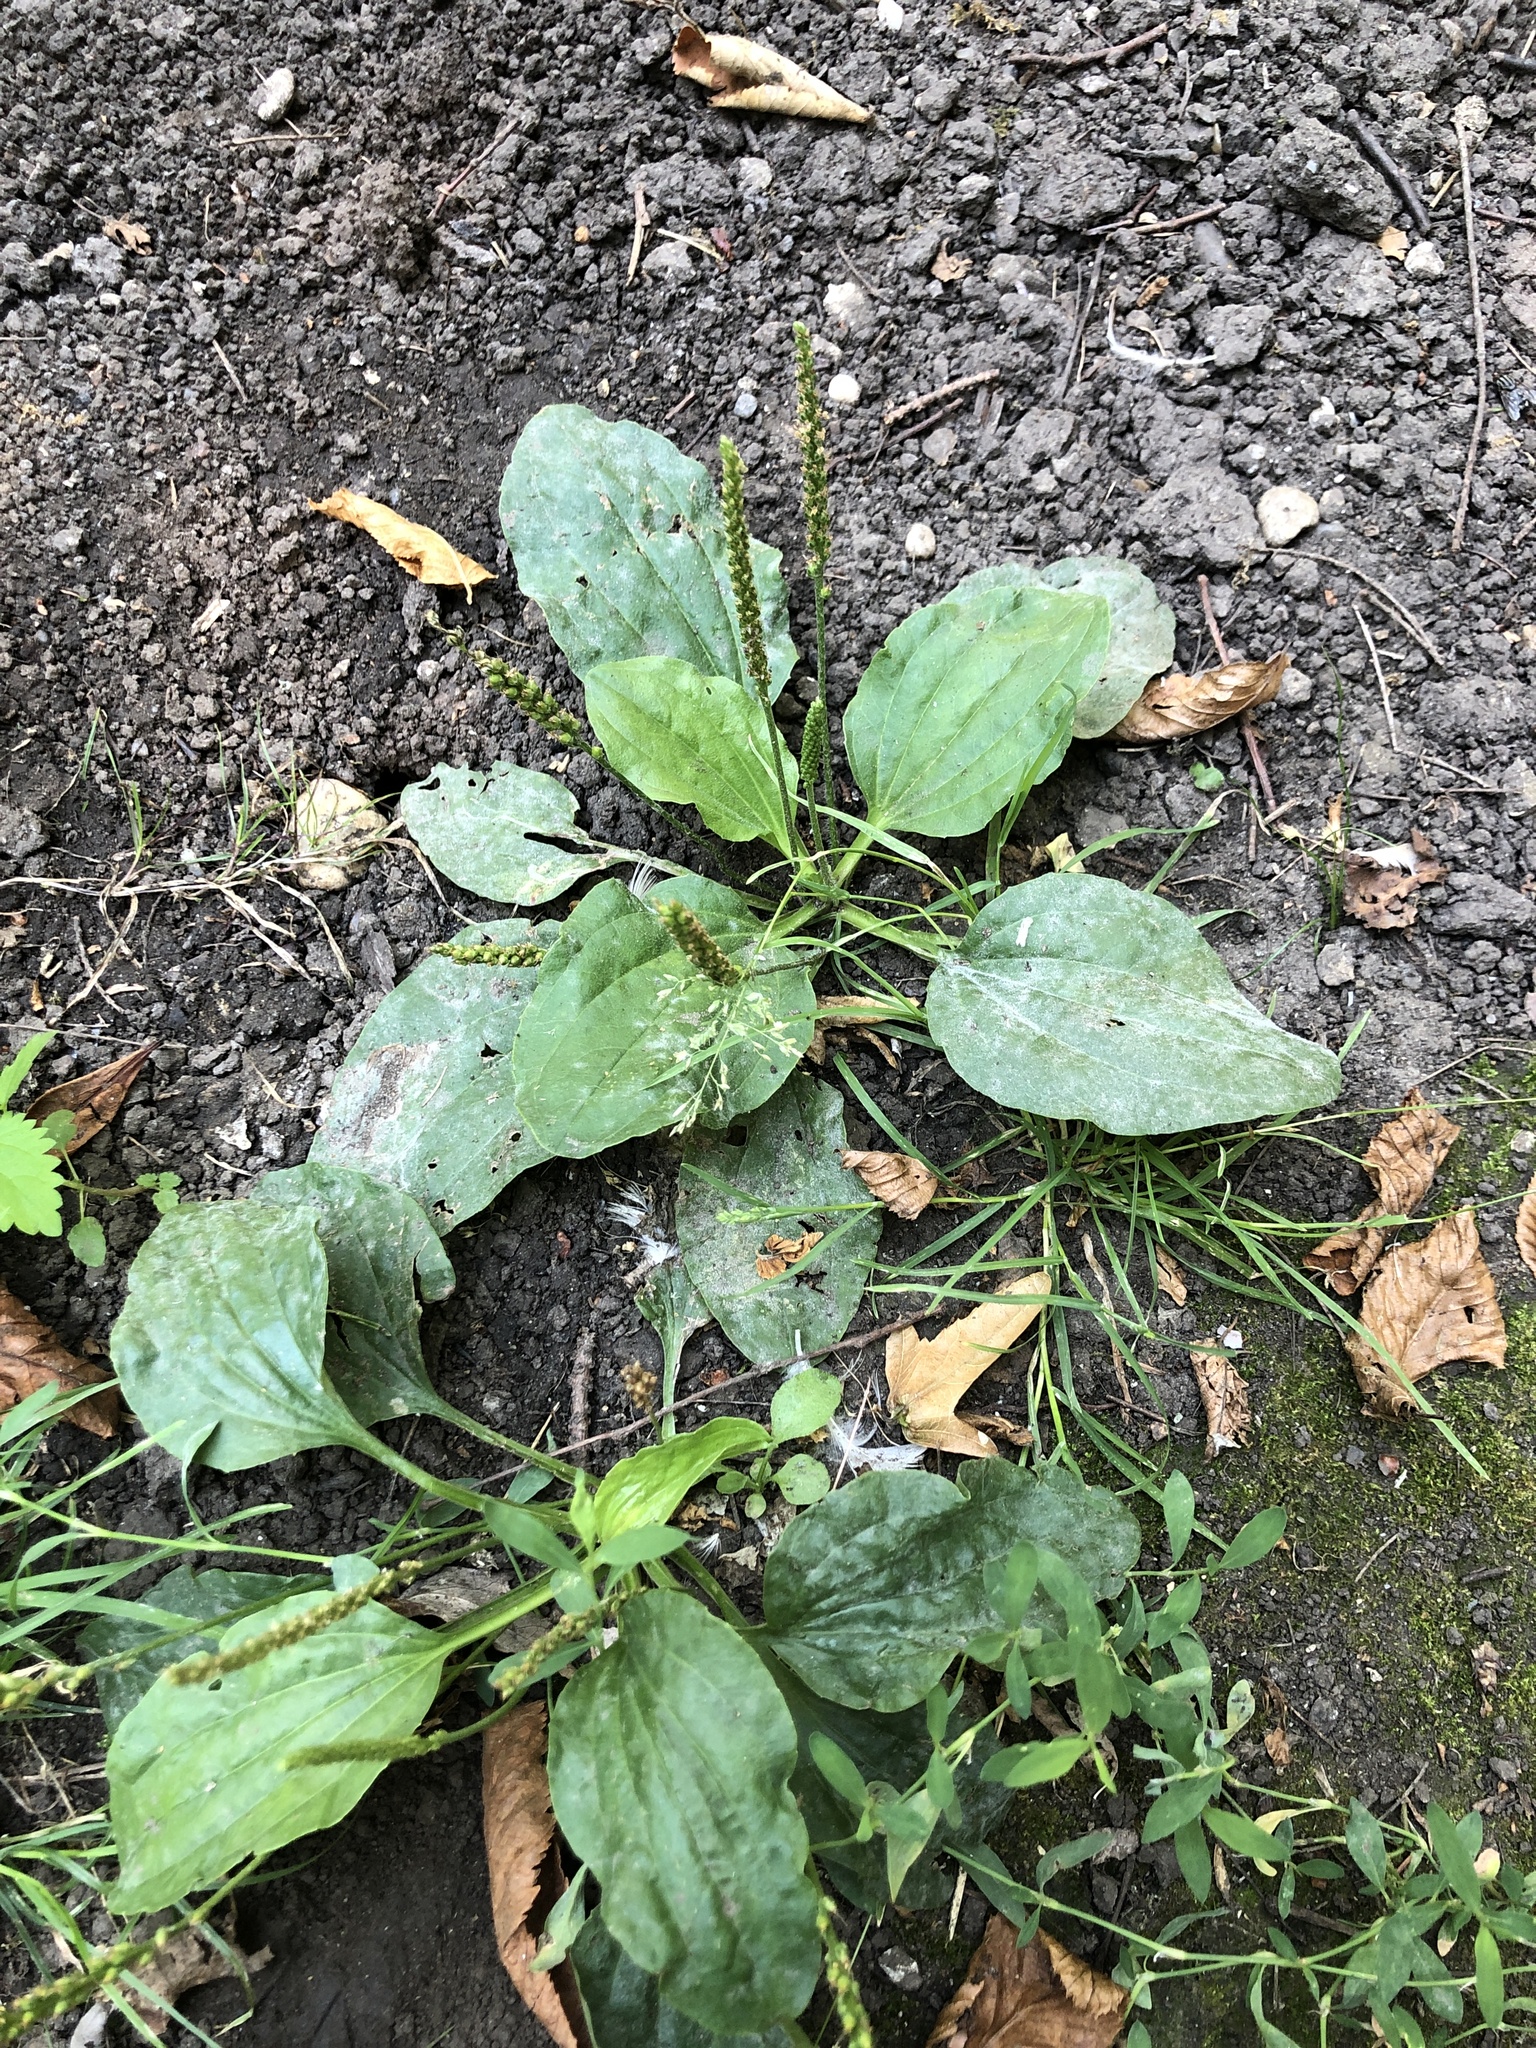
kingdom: Plantae
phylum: Tracheophyta
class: Magnoliopsida
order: Lamiales
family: Plantaginaceae
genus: Plantago
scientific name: Plantago major
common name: Common plantain
